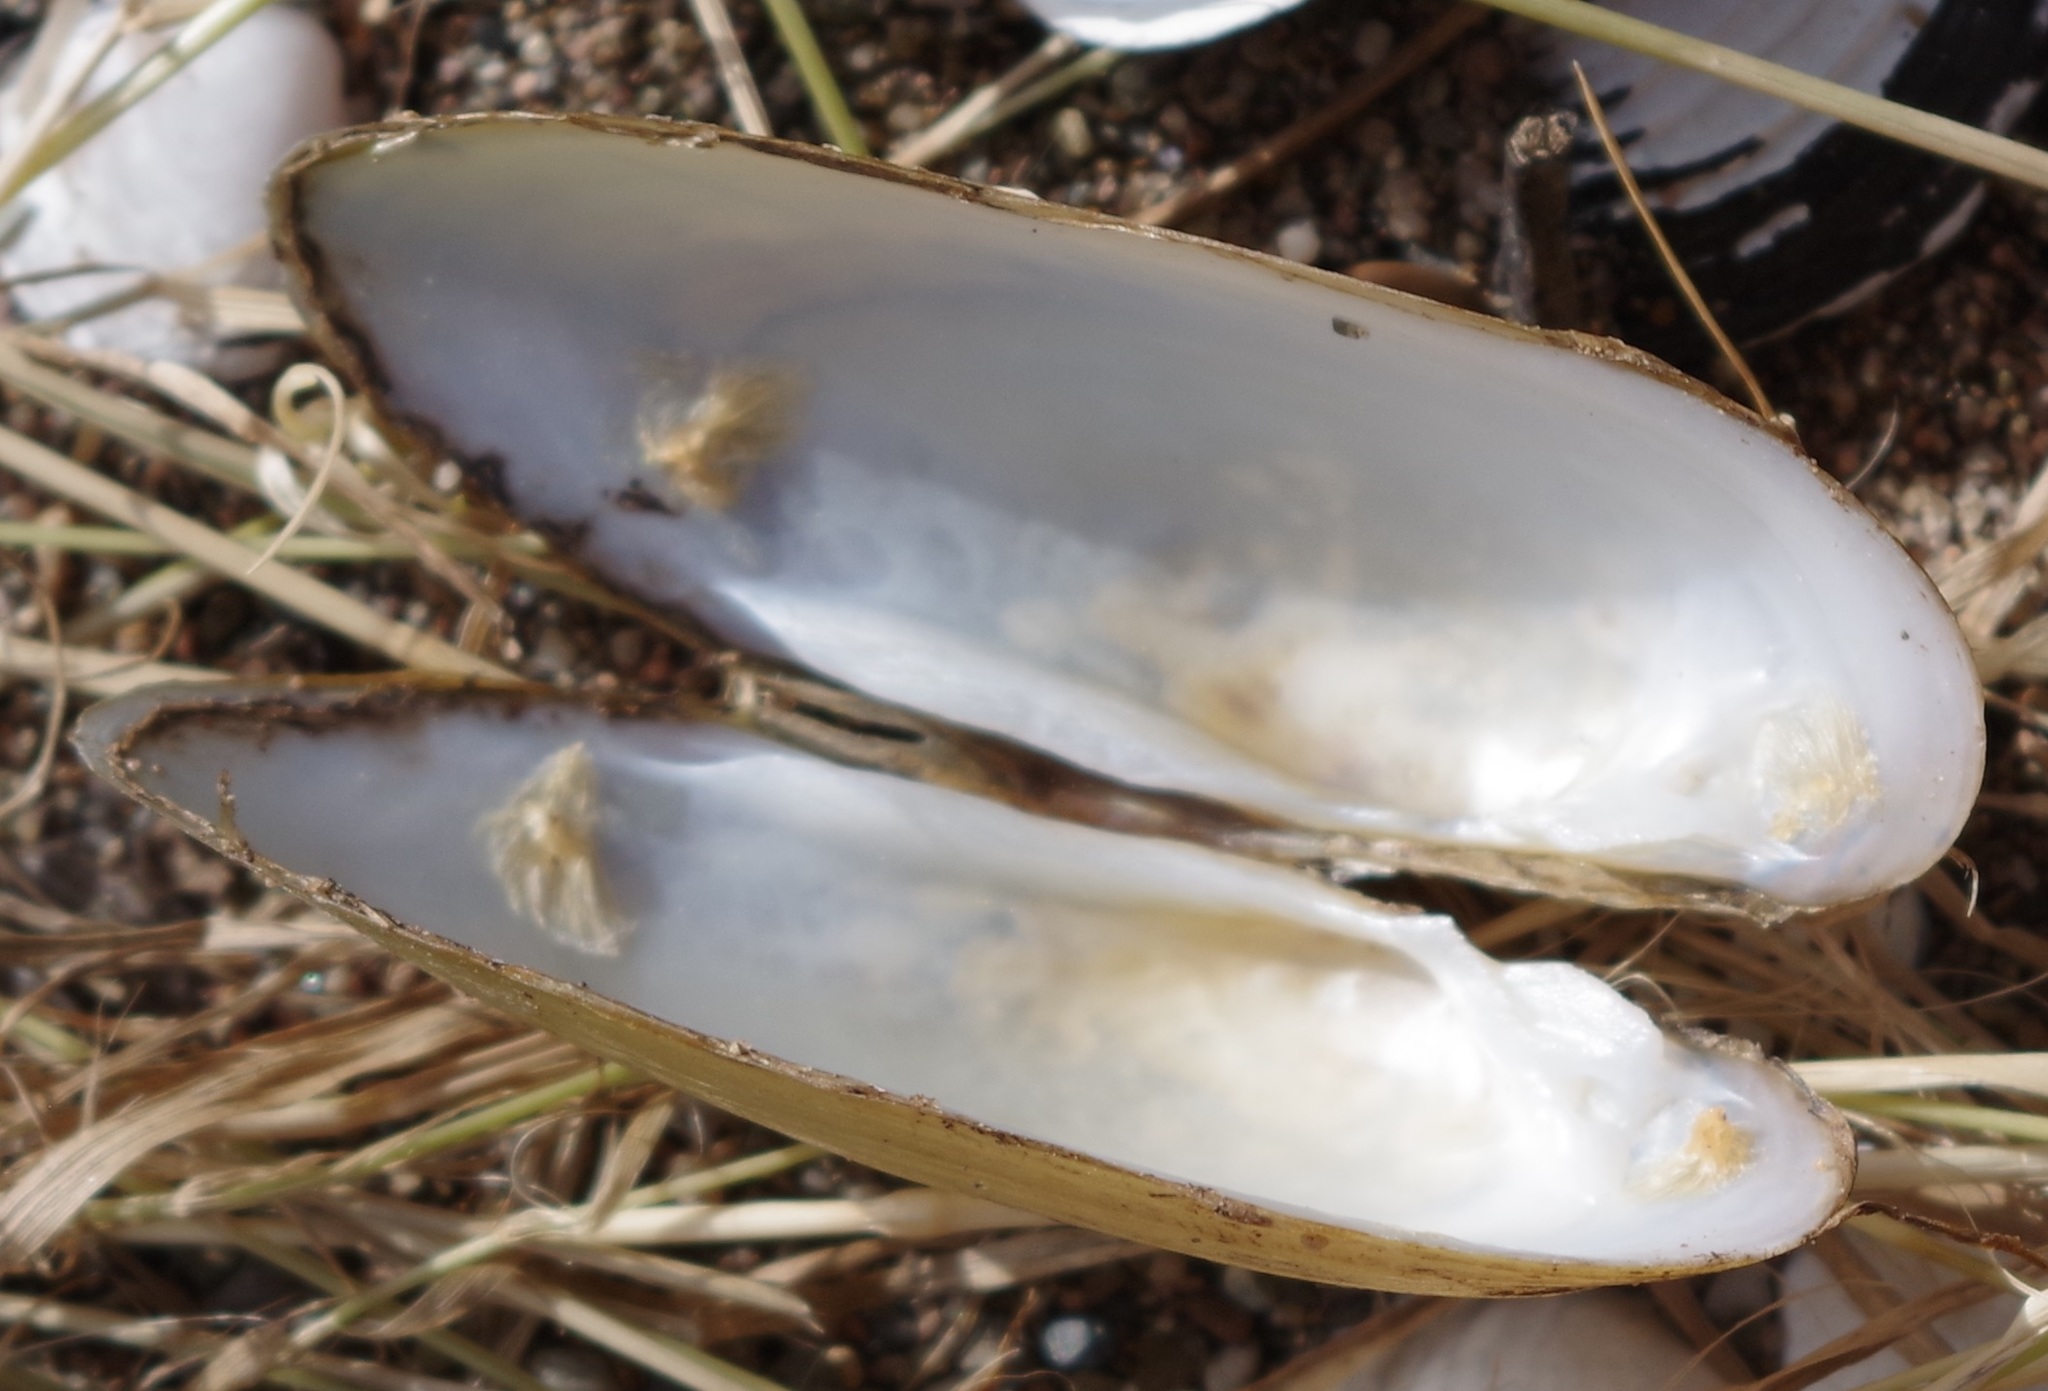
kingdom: Animalia
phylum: Mollusca
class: Bivalvia
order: Unionida
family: Unionidae
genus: Unio
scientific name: Unio pictorum
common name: Painter's mussel
